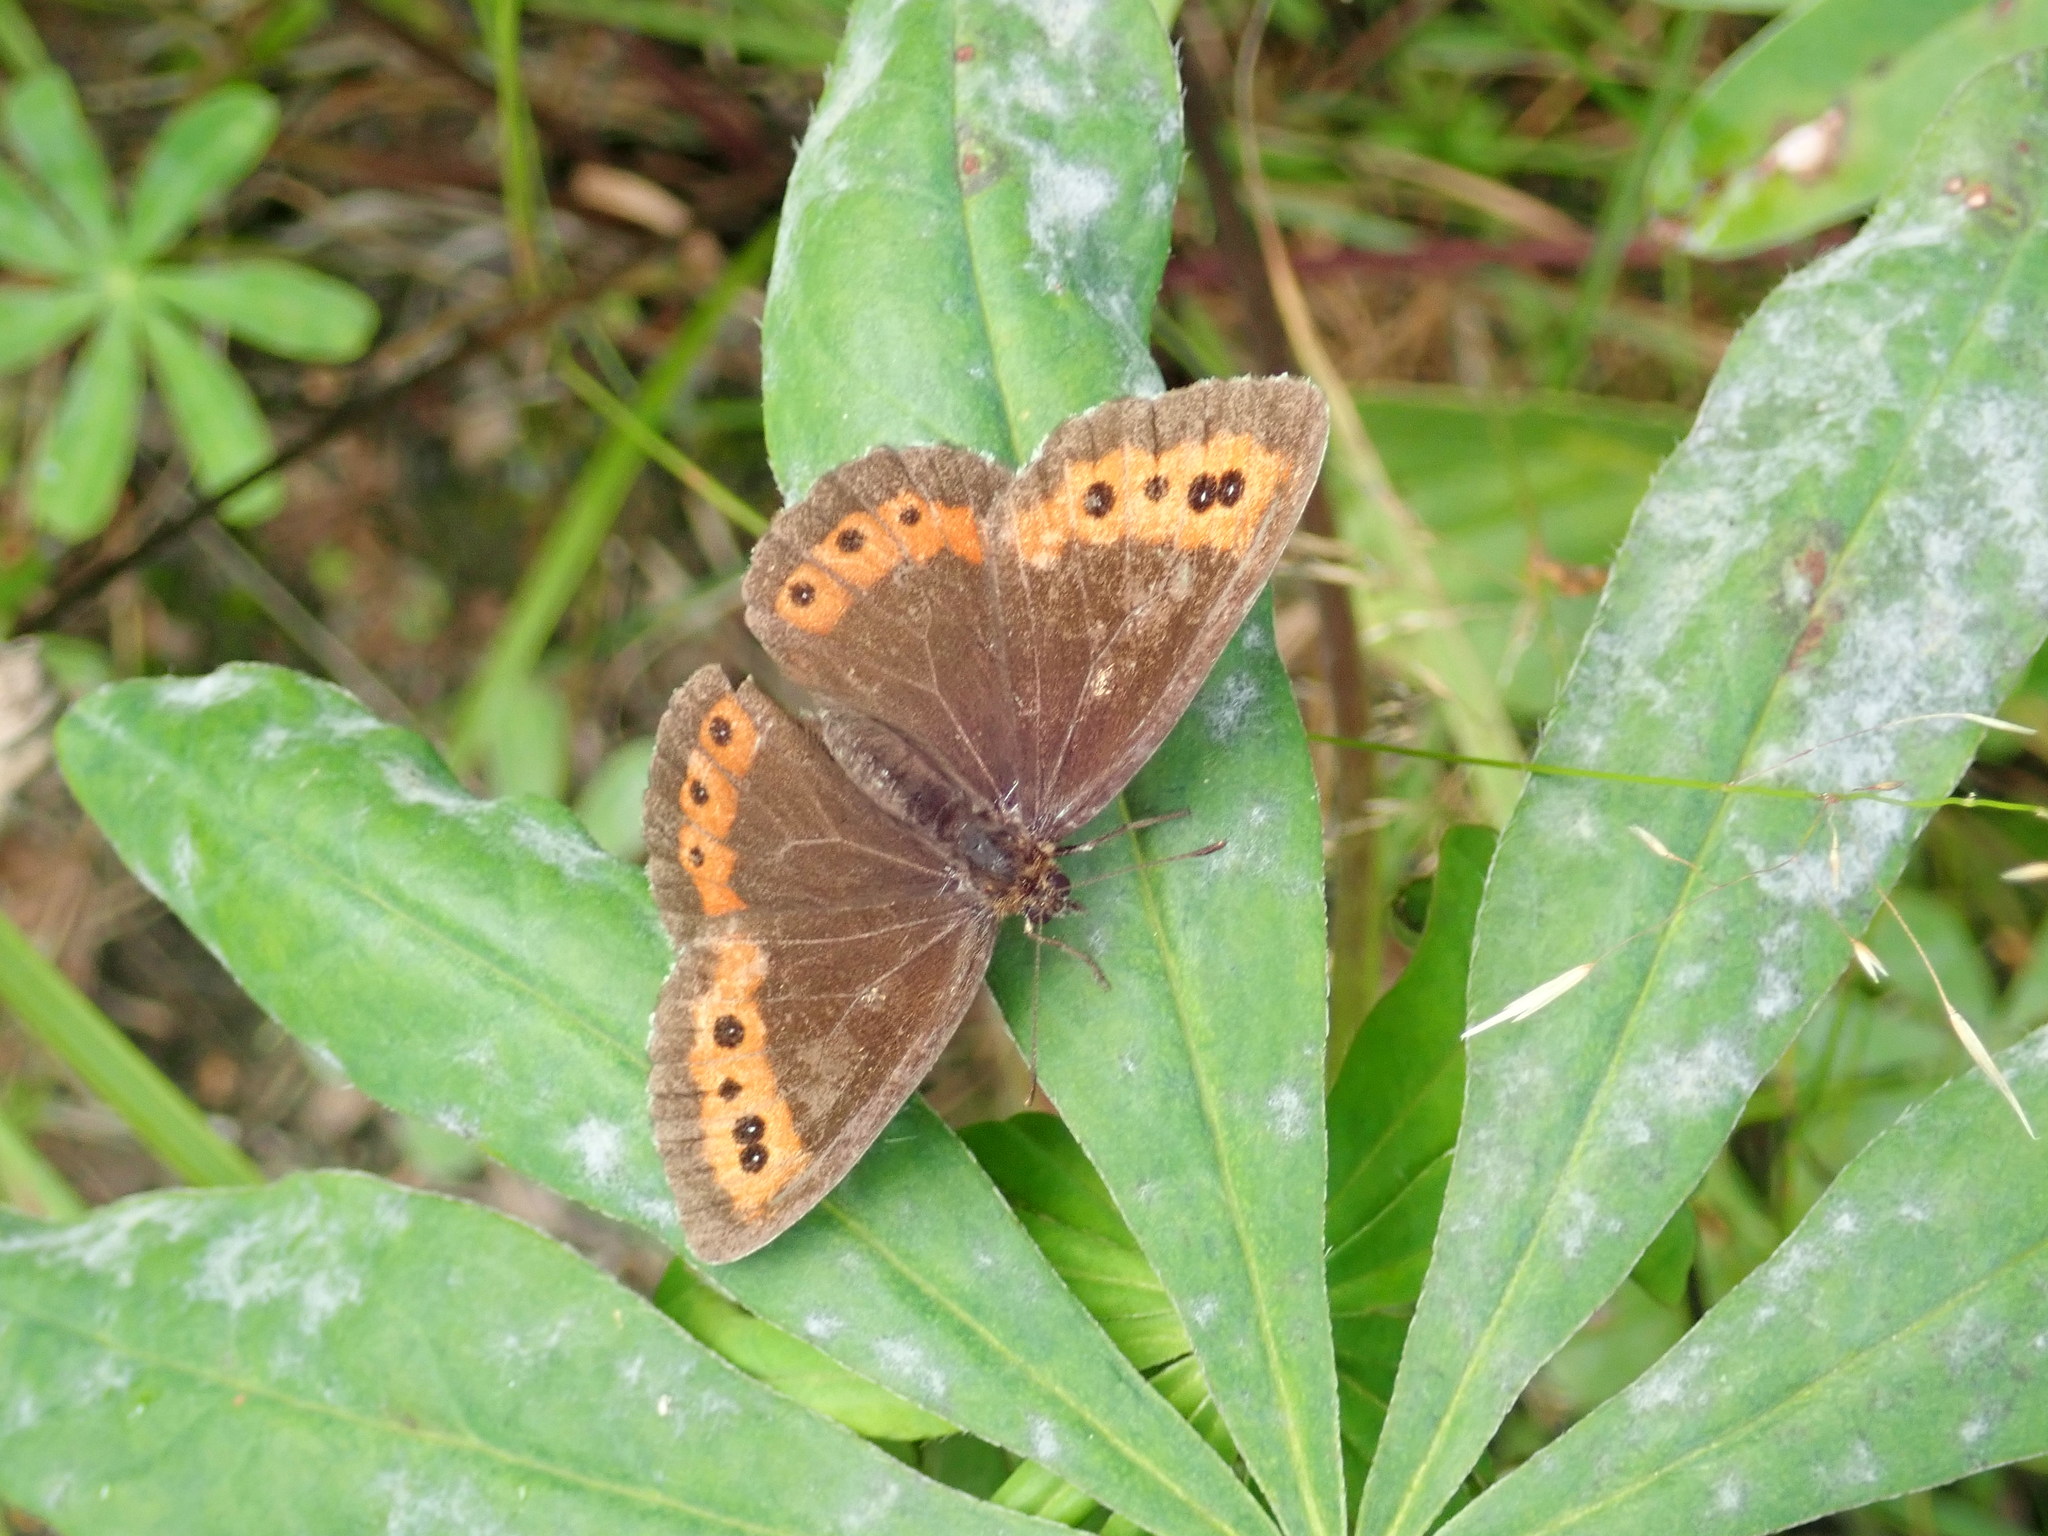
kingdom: Animalia
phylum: Arthropoda
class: Insecta
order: Lepidoptera
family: Nymphalidae
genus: Erebia
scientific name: Erebia ligea
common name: Arran brown
